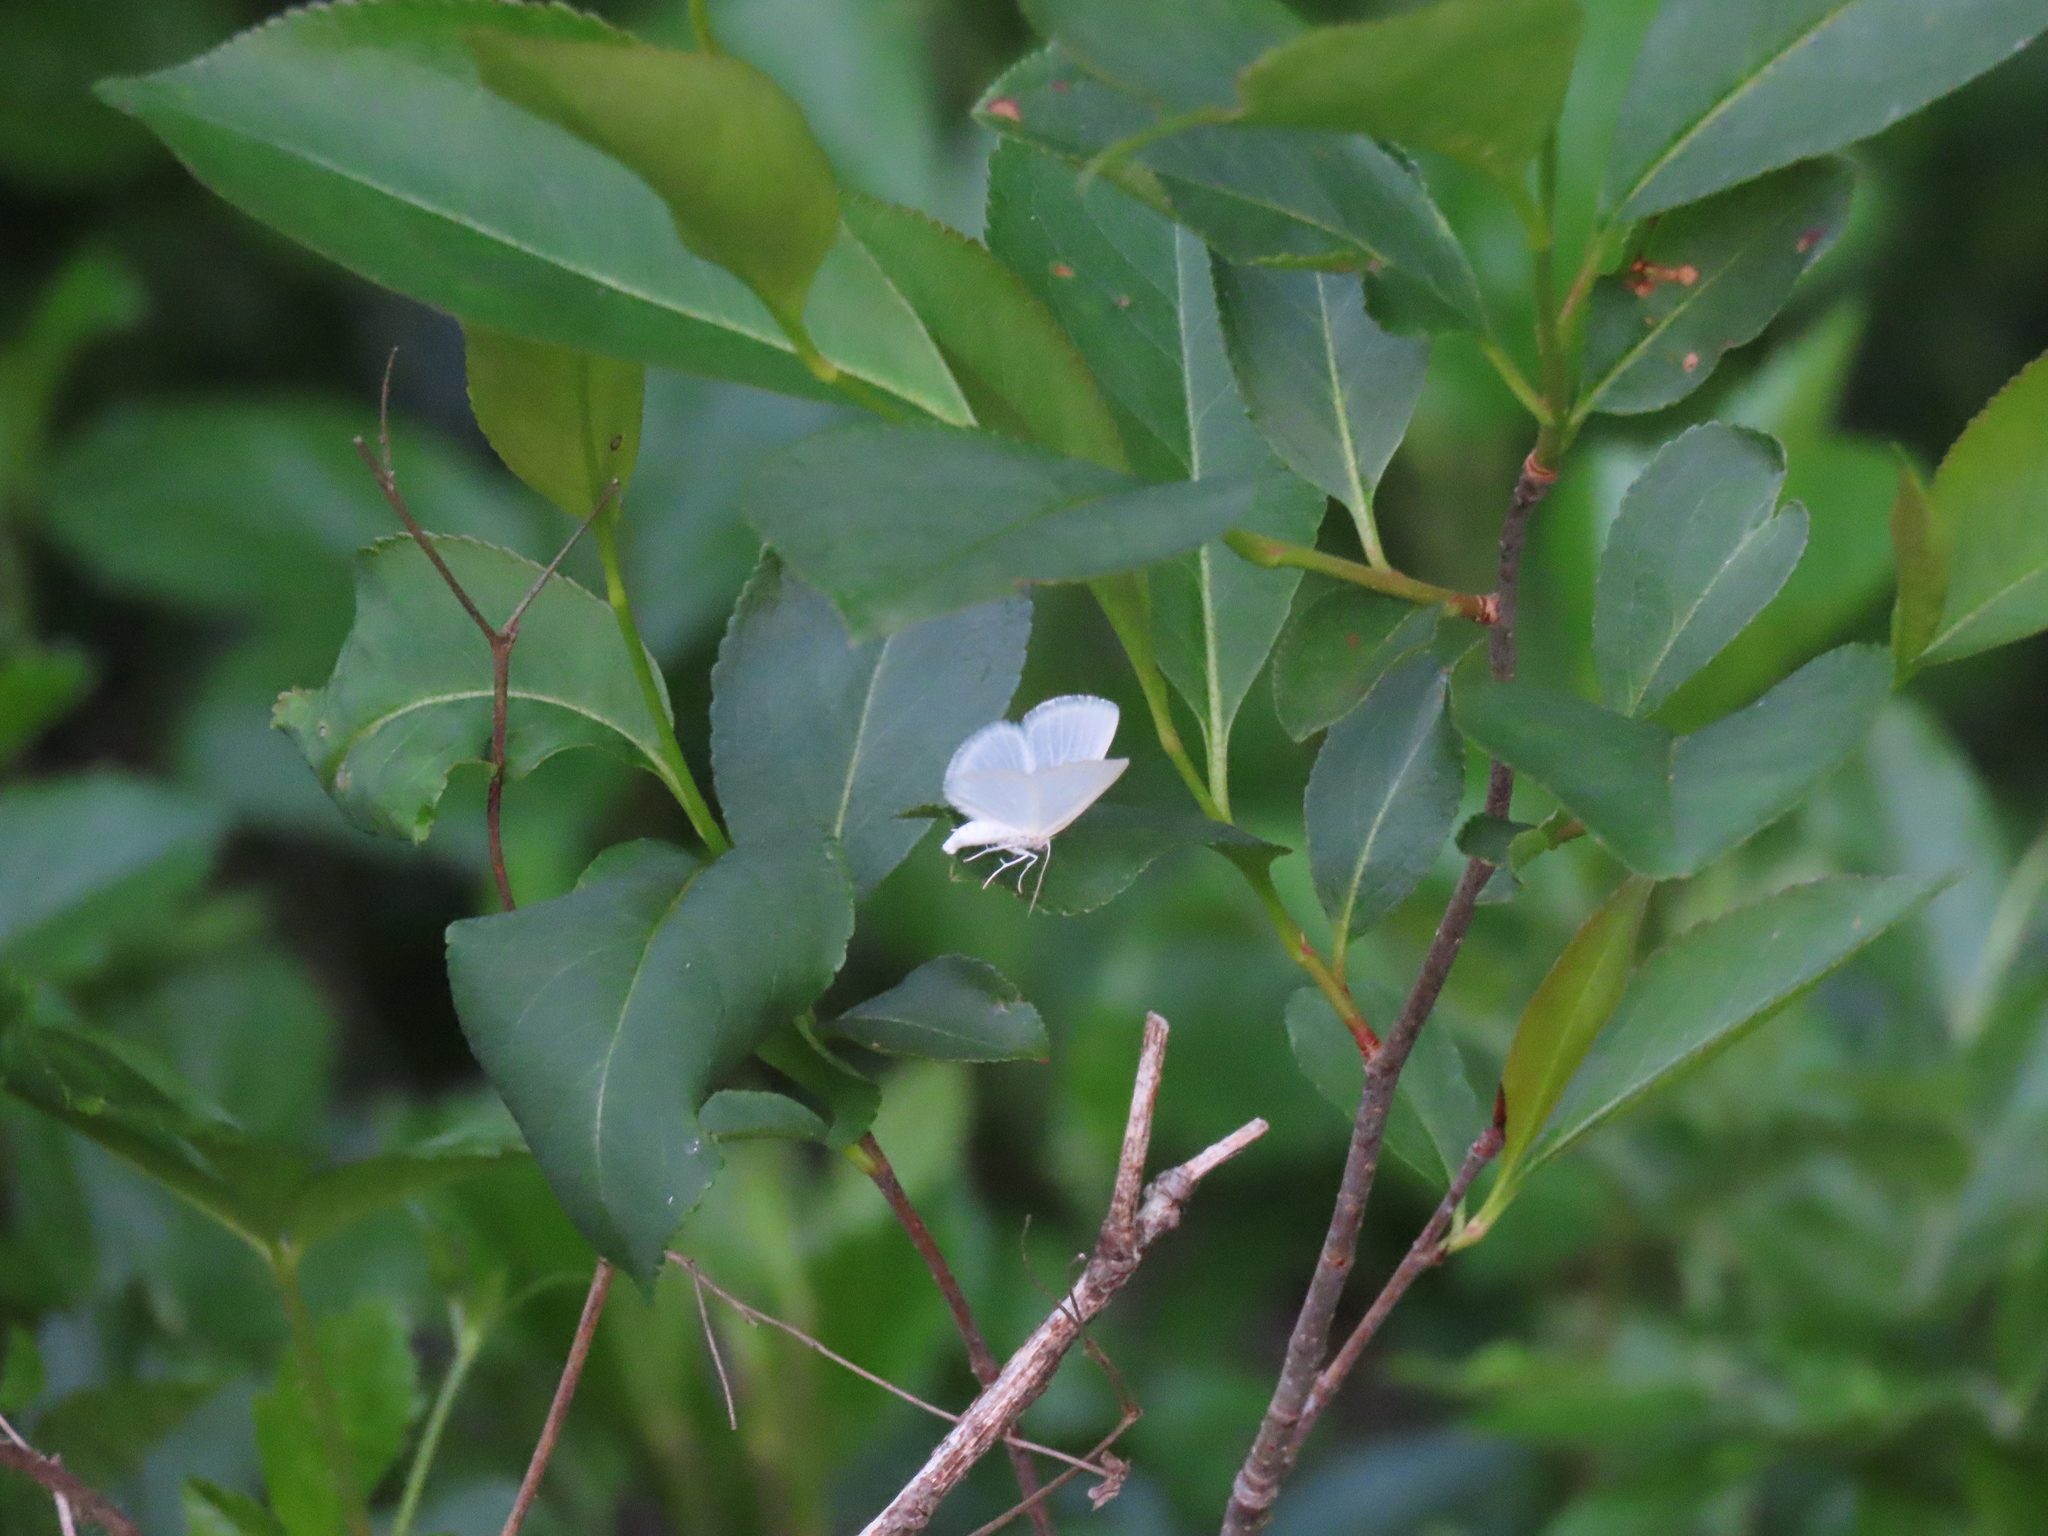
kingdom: Animalia
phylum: Arthropoda
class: Insecta
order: Lepidoptera
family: Geometridae
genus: Lomographa
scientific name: Lomographa vestaliata
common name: White spring moth
